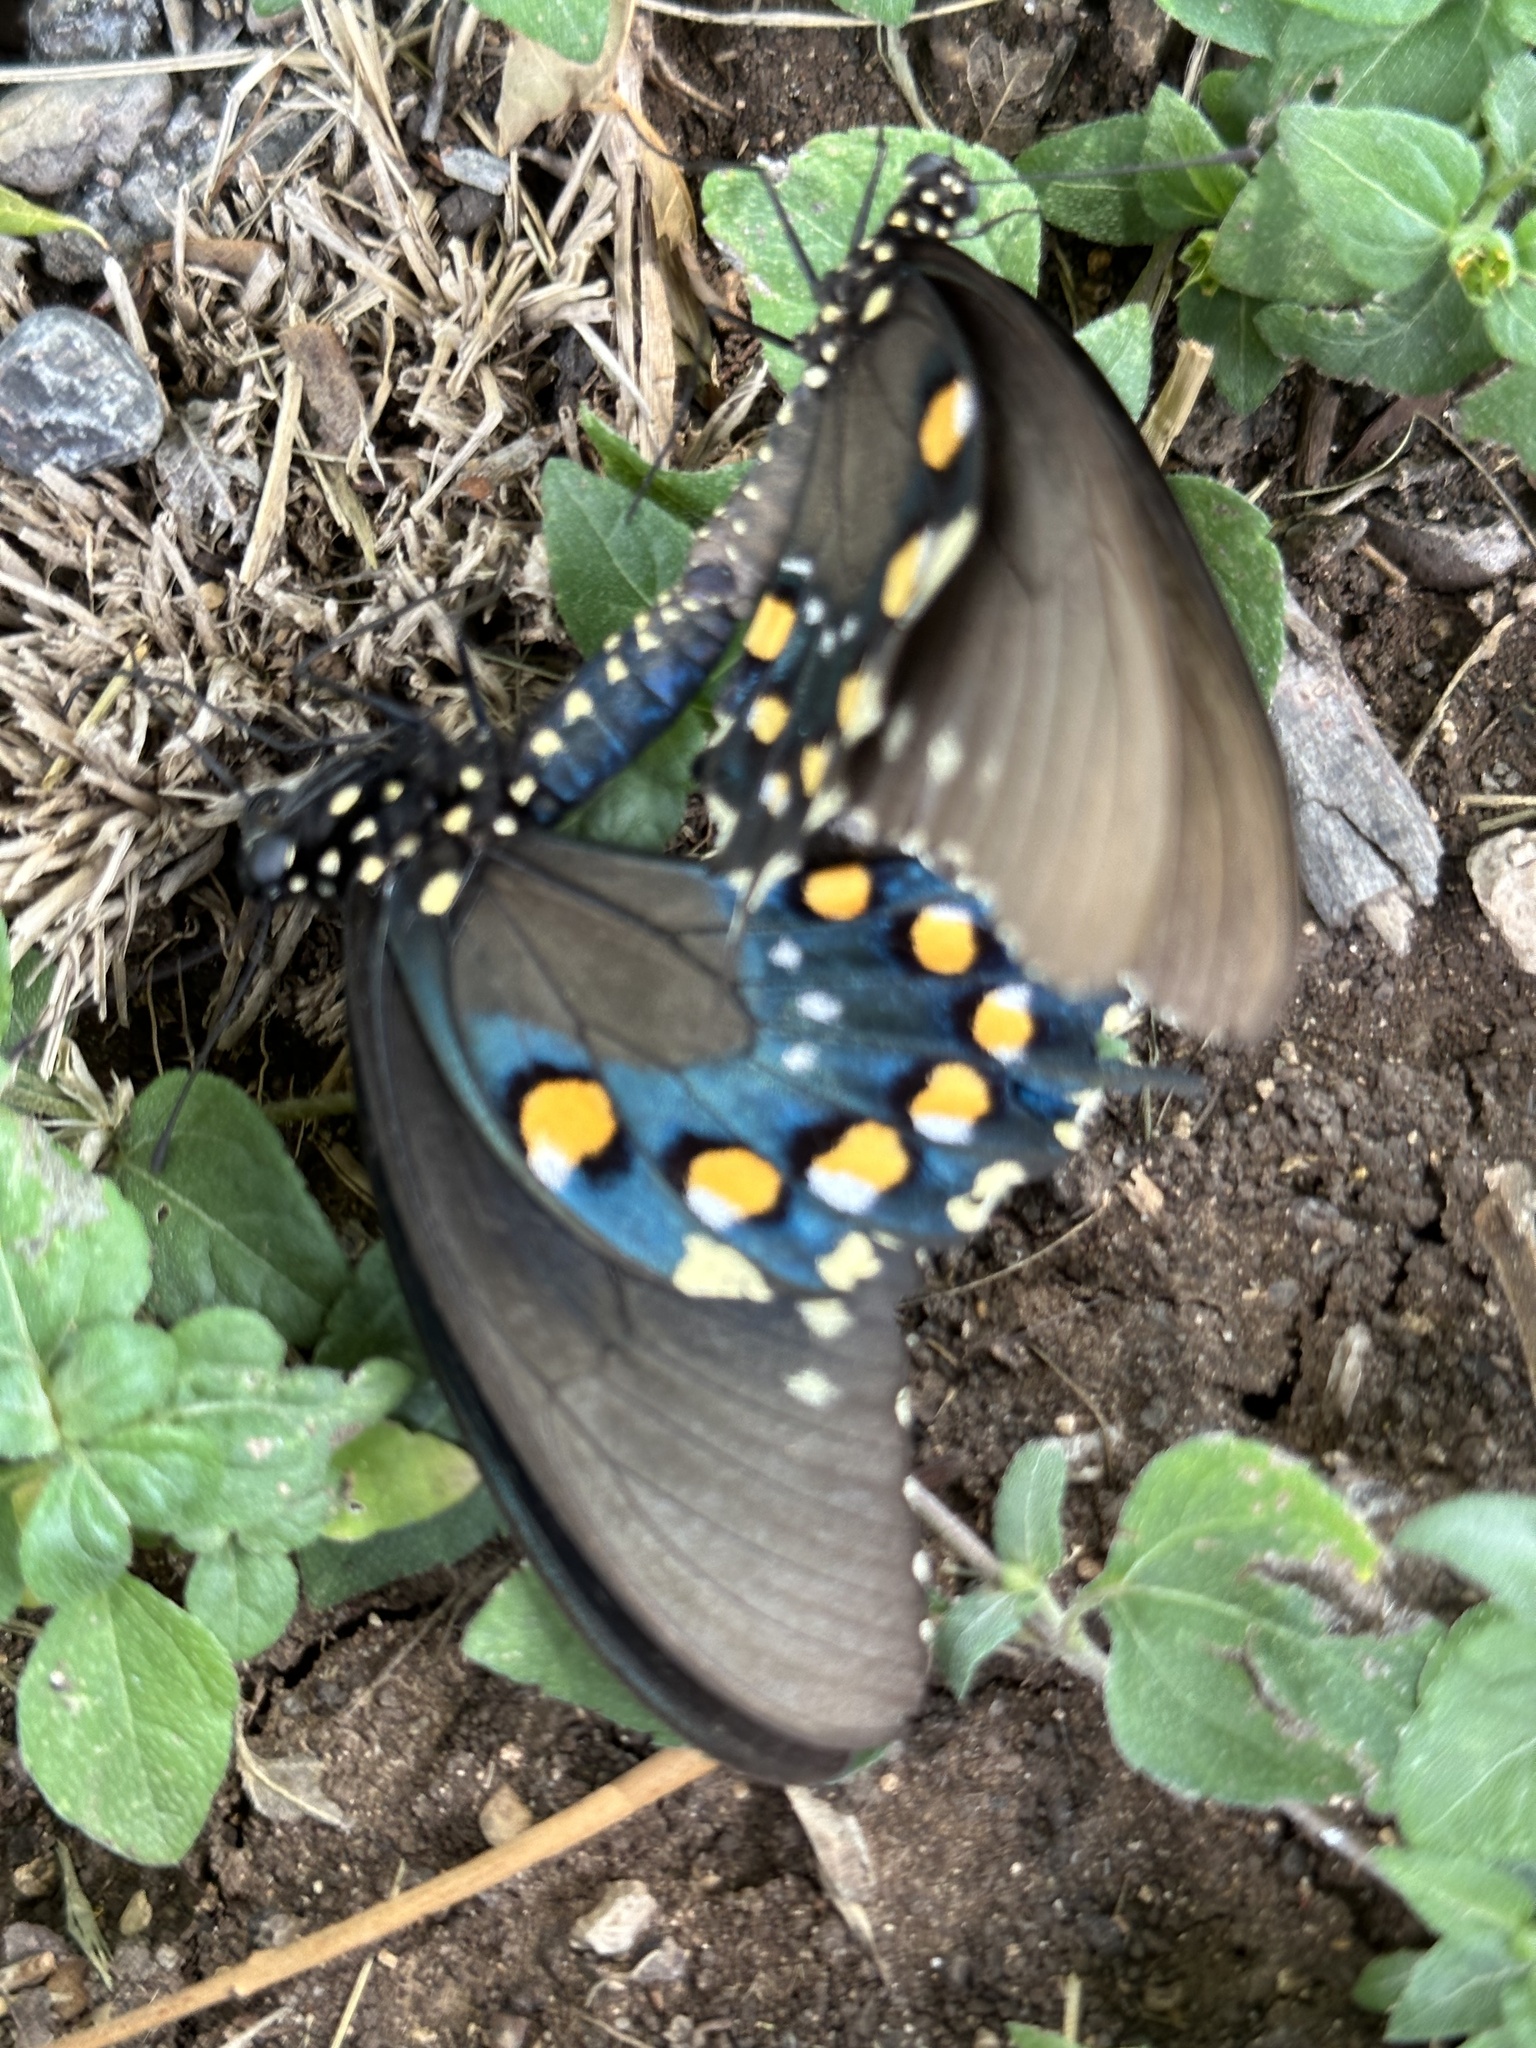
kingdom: Animalia
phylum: Arthropoda
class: Insecta
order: Lepidoptera
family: Papilionidae
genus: Battus
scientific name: Battus philenor
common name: Pipevine swallowtail
